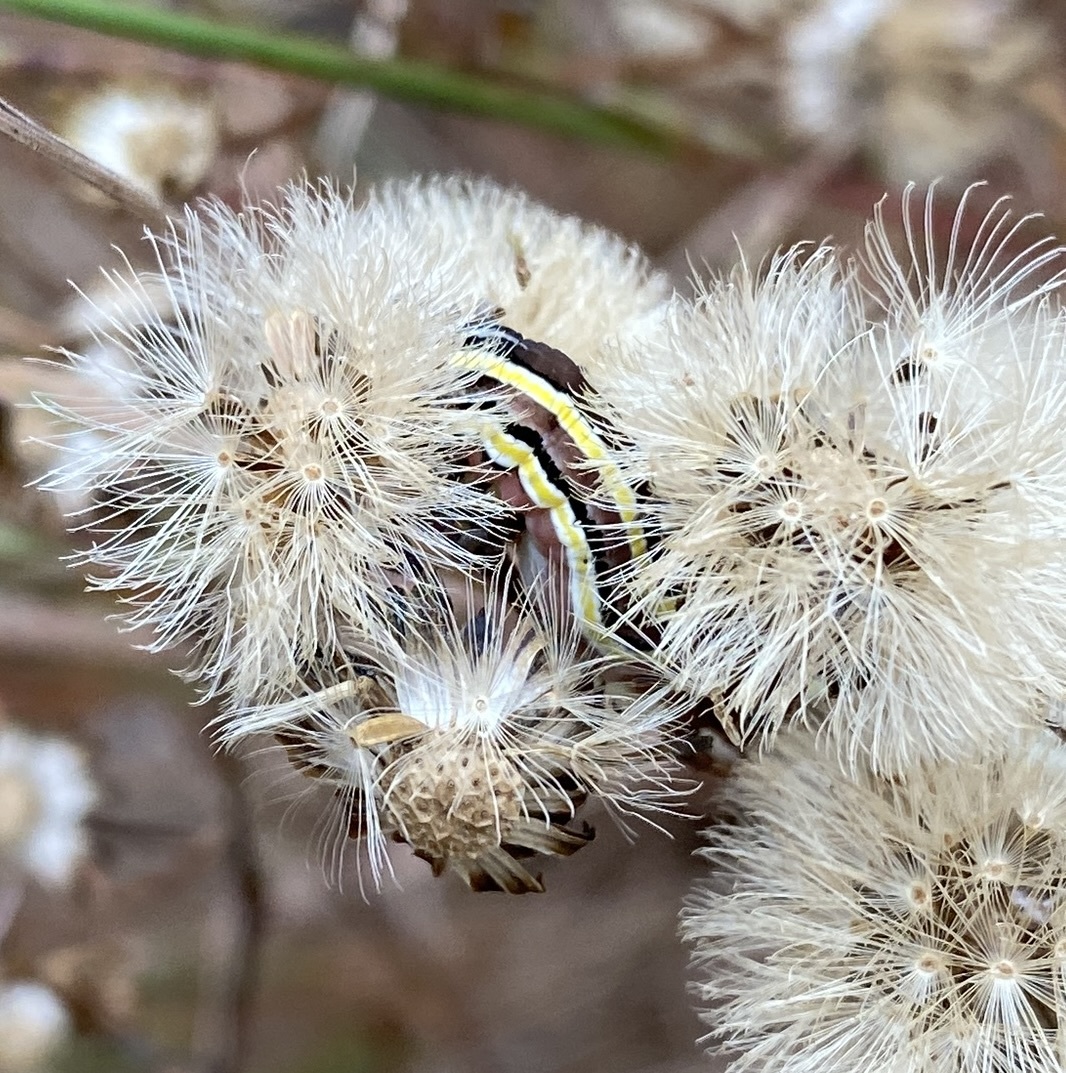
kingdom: Animalia
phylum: Arthropoda
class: Insecta
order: Lepidoptera
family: Noctuidae
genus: Trichordestra
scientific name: Trichordestra legitima
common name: Striped garden caterpillar
